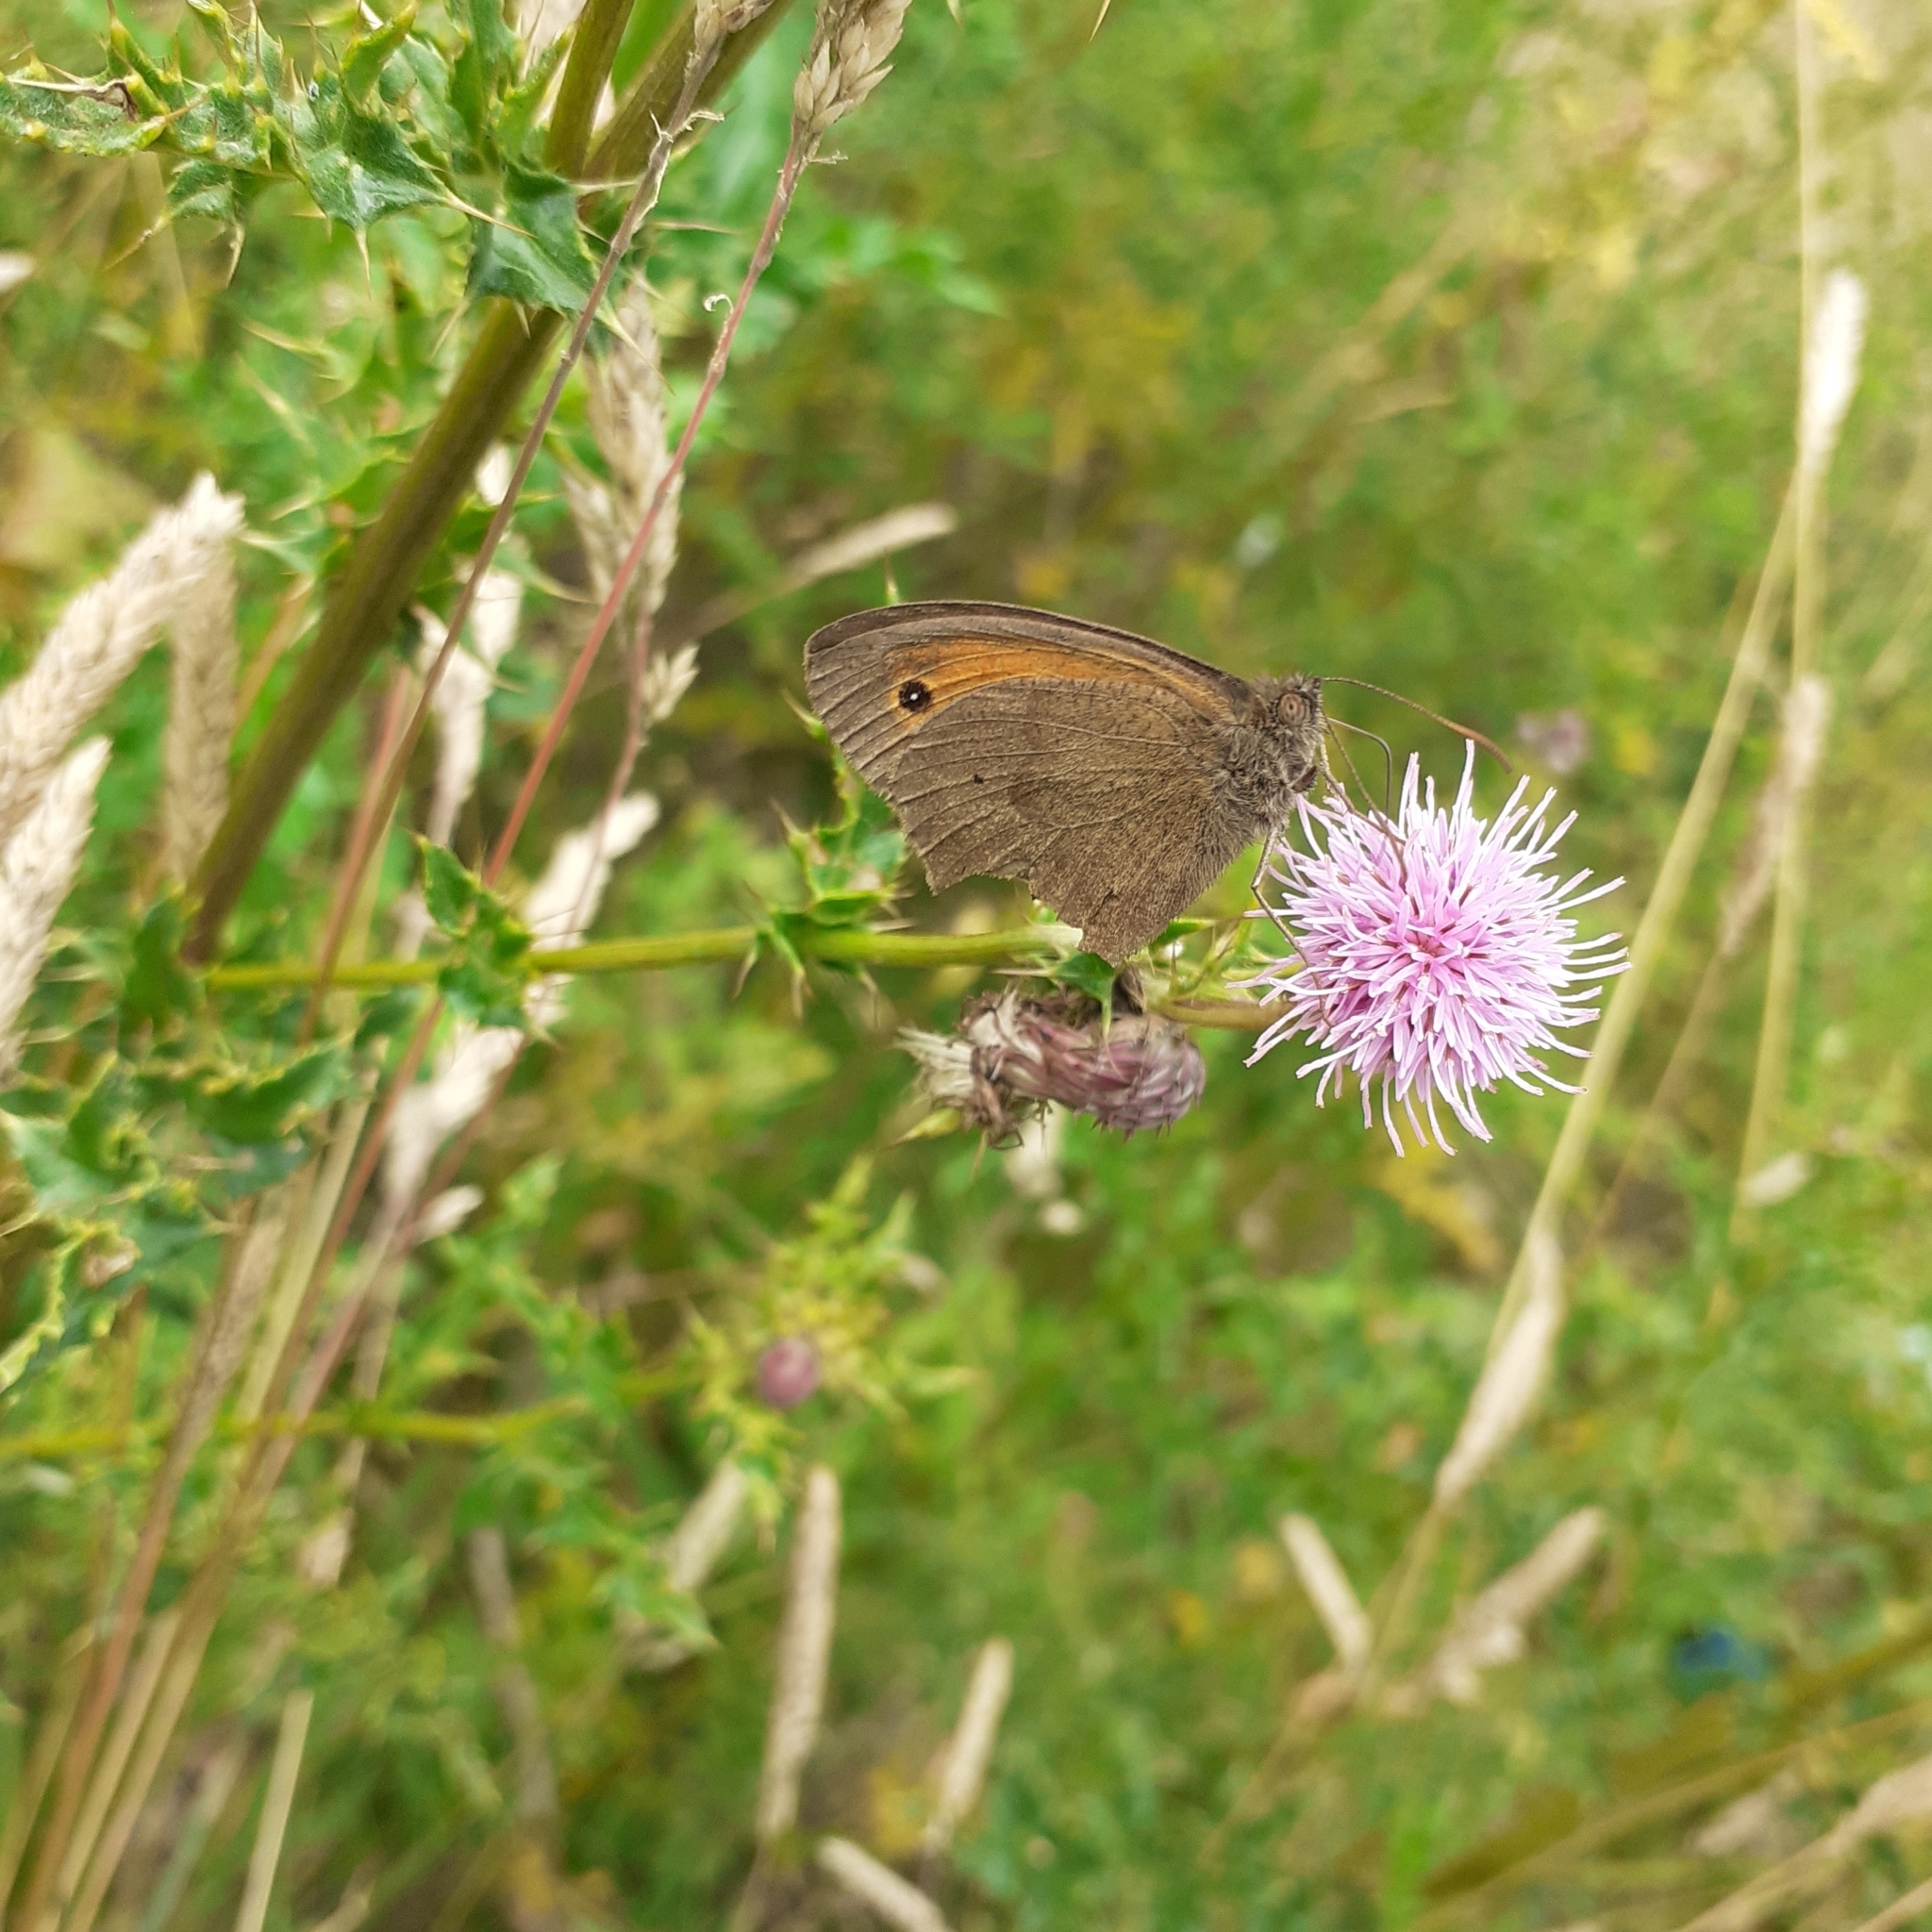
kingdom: Animalia
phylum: Arthropoda
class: Insecta
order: Lepidoptera
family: Nymphalidae
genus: Maniola
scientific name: Maniola jurtina
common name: Meadow brown
